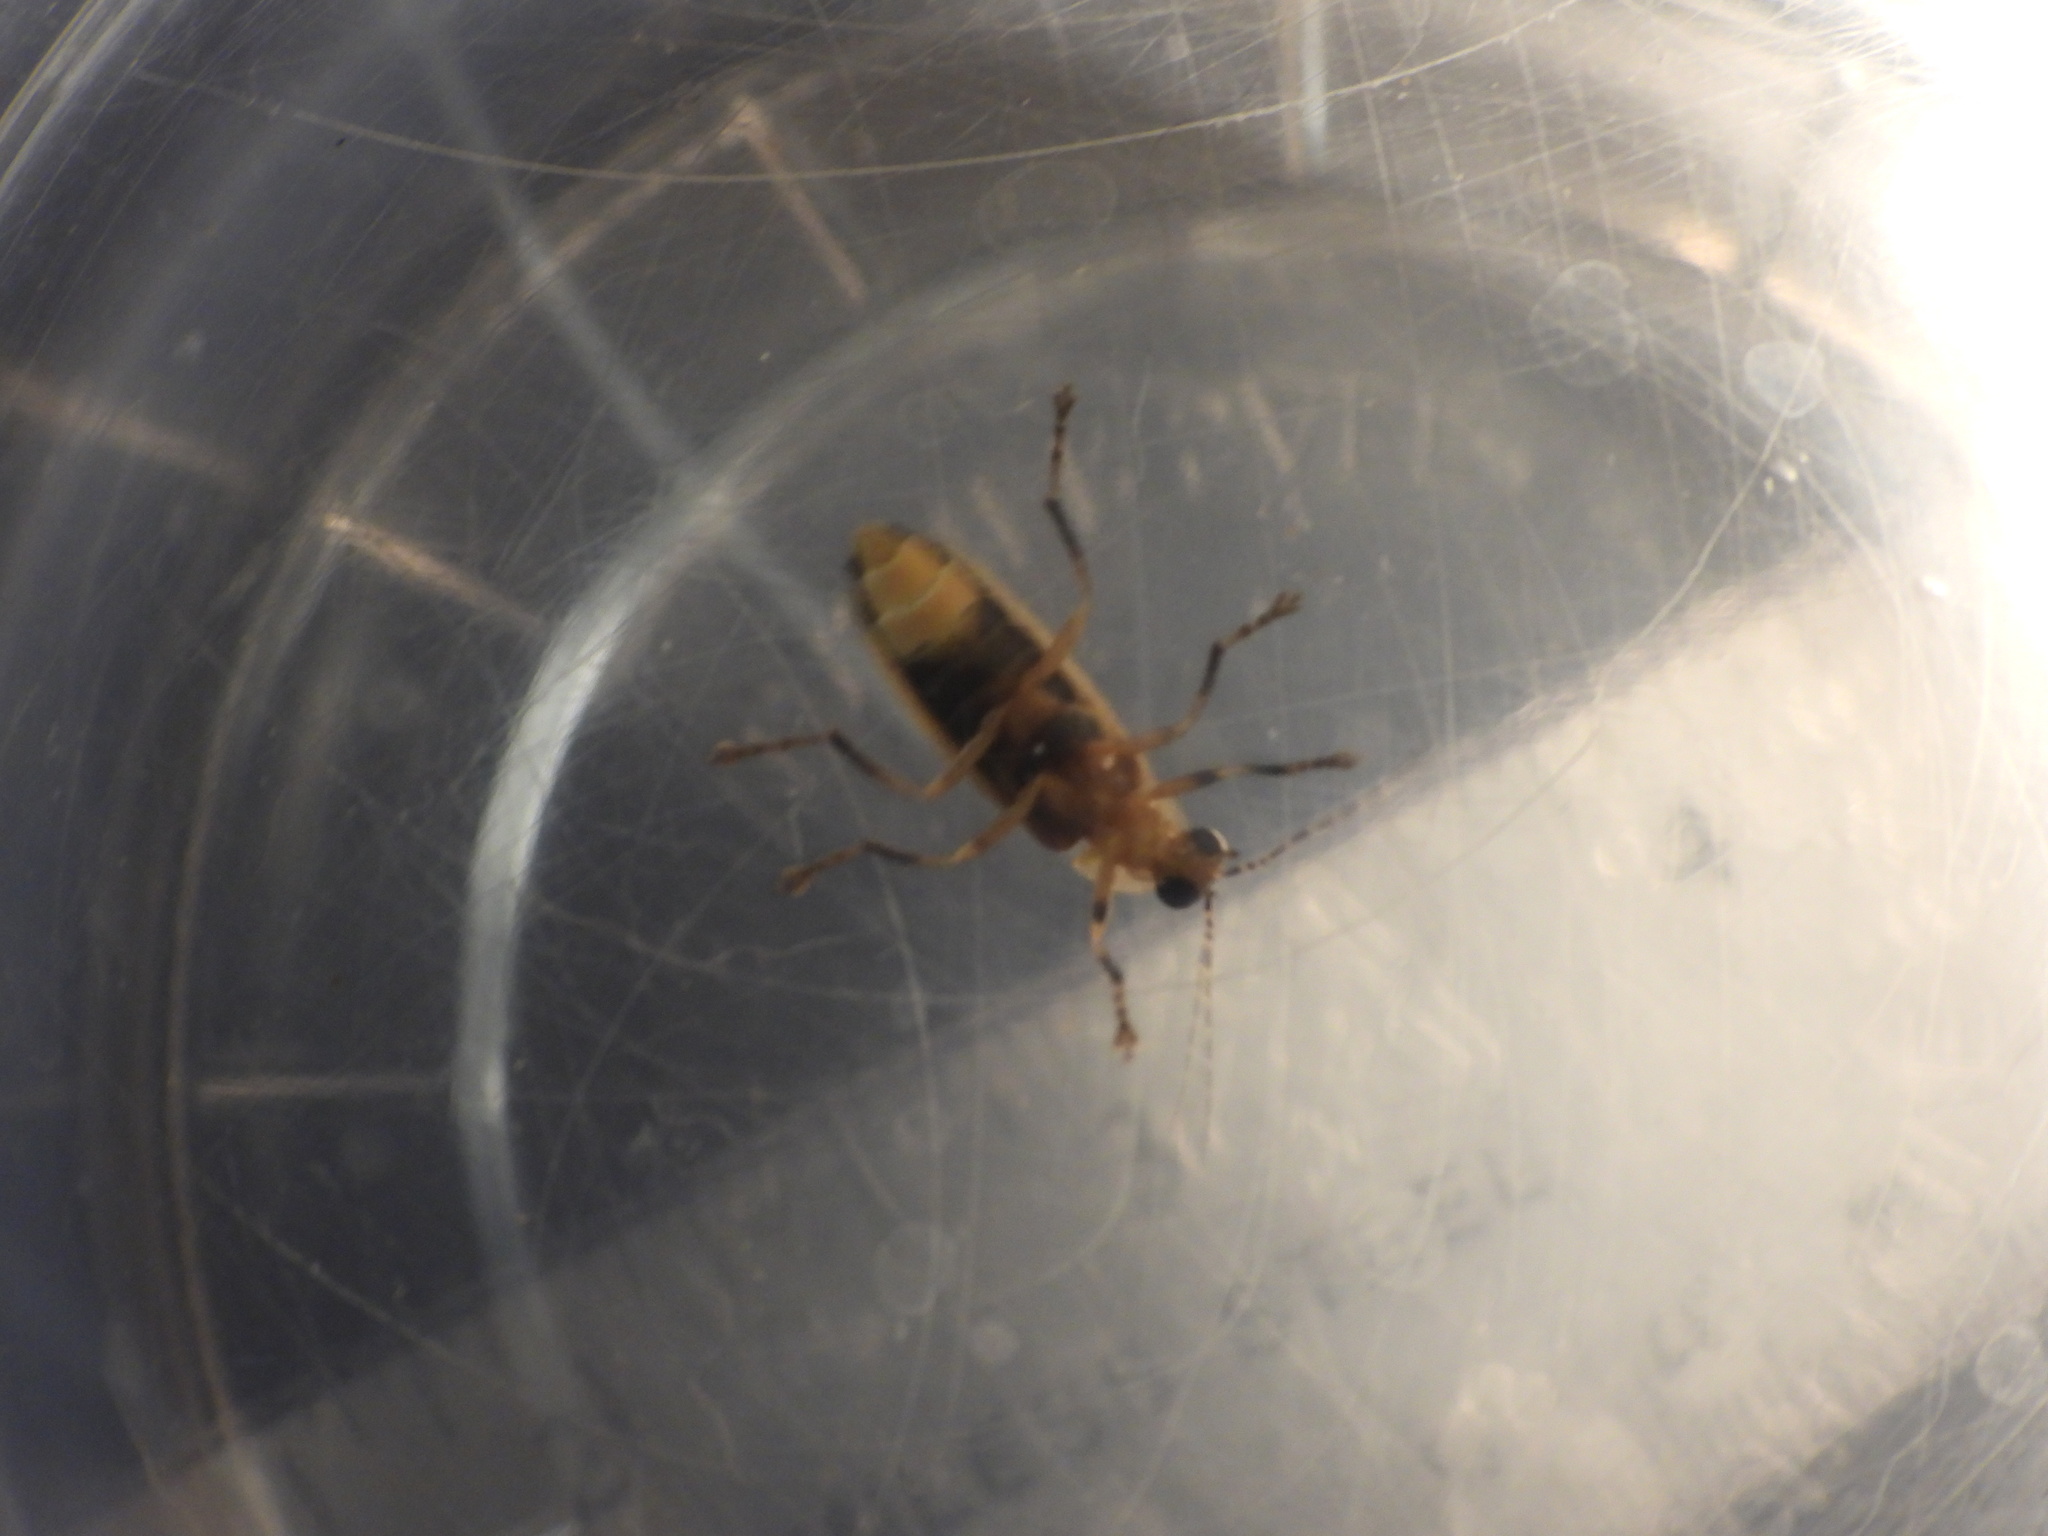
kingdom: Animalia
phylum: Arthropoda
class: Insecta
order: Coleoptera
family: Lampyridae
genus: Photuris
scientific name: Photuris
